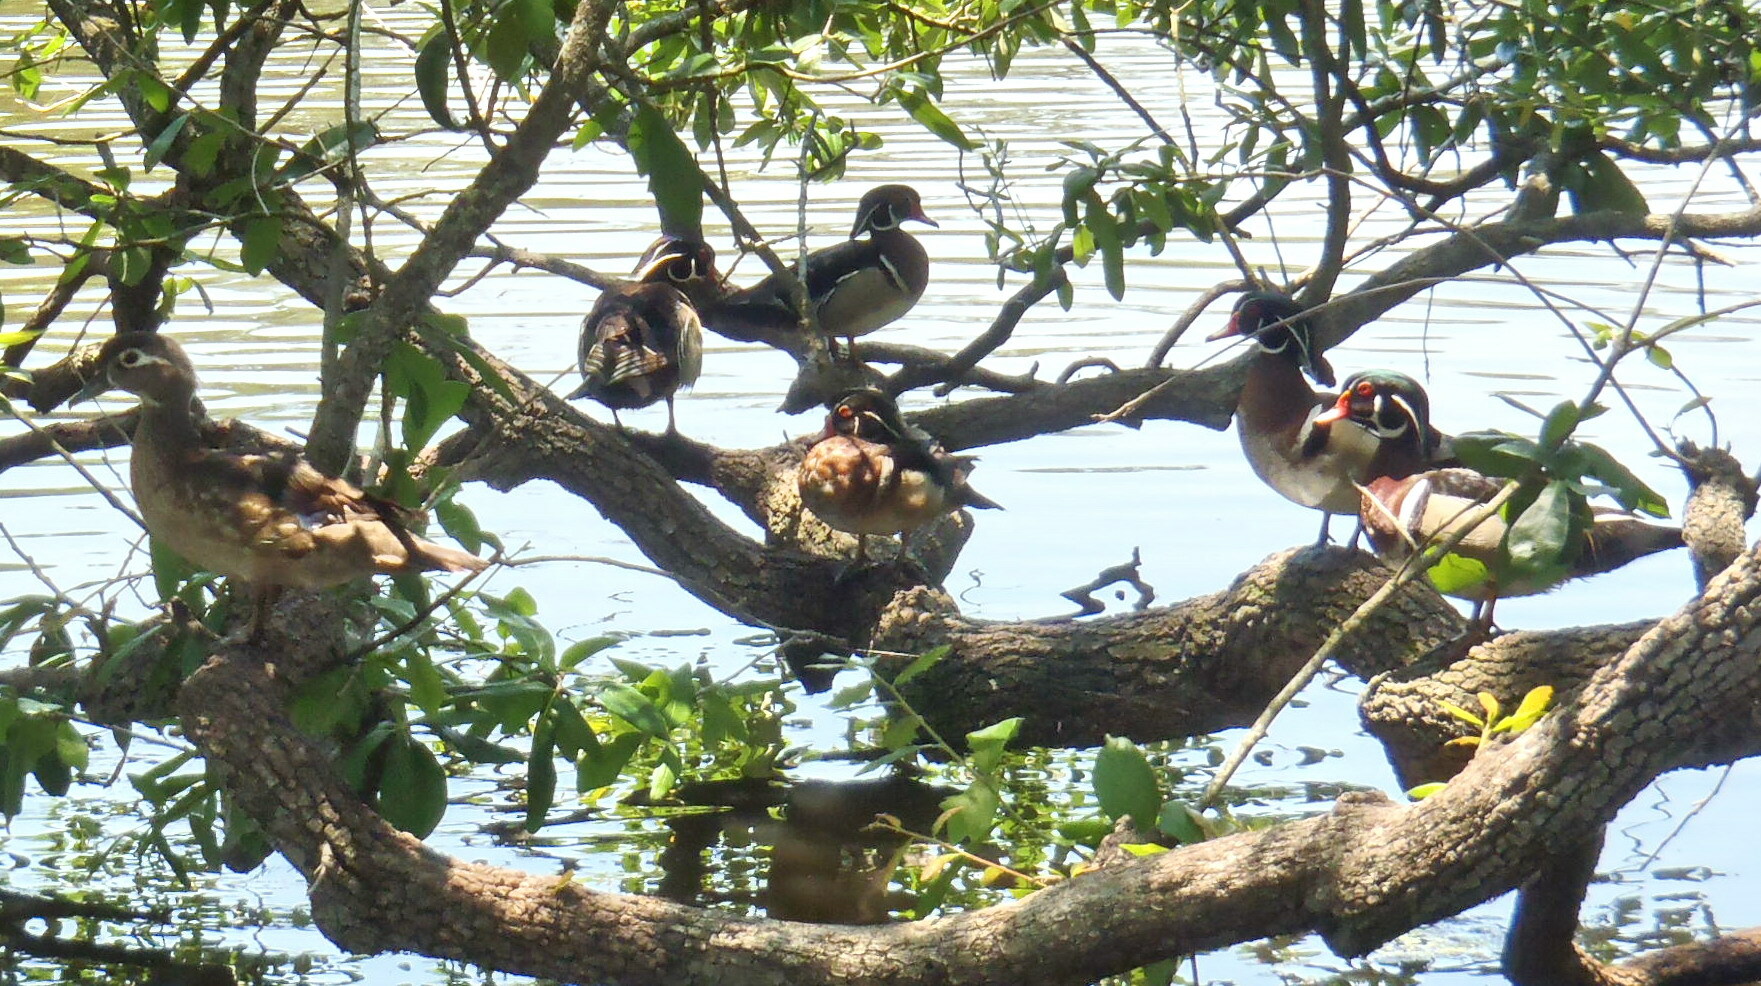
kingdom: Animalia
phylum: Chordata
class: Aves
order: Anseriformes
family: Anatidae
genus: Aix
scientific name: Aix sponsa
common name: Wood duck
